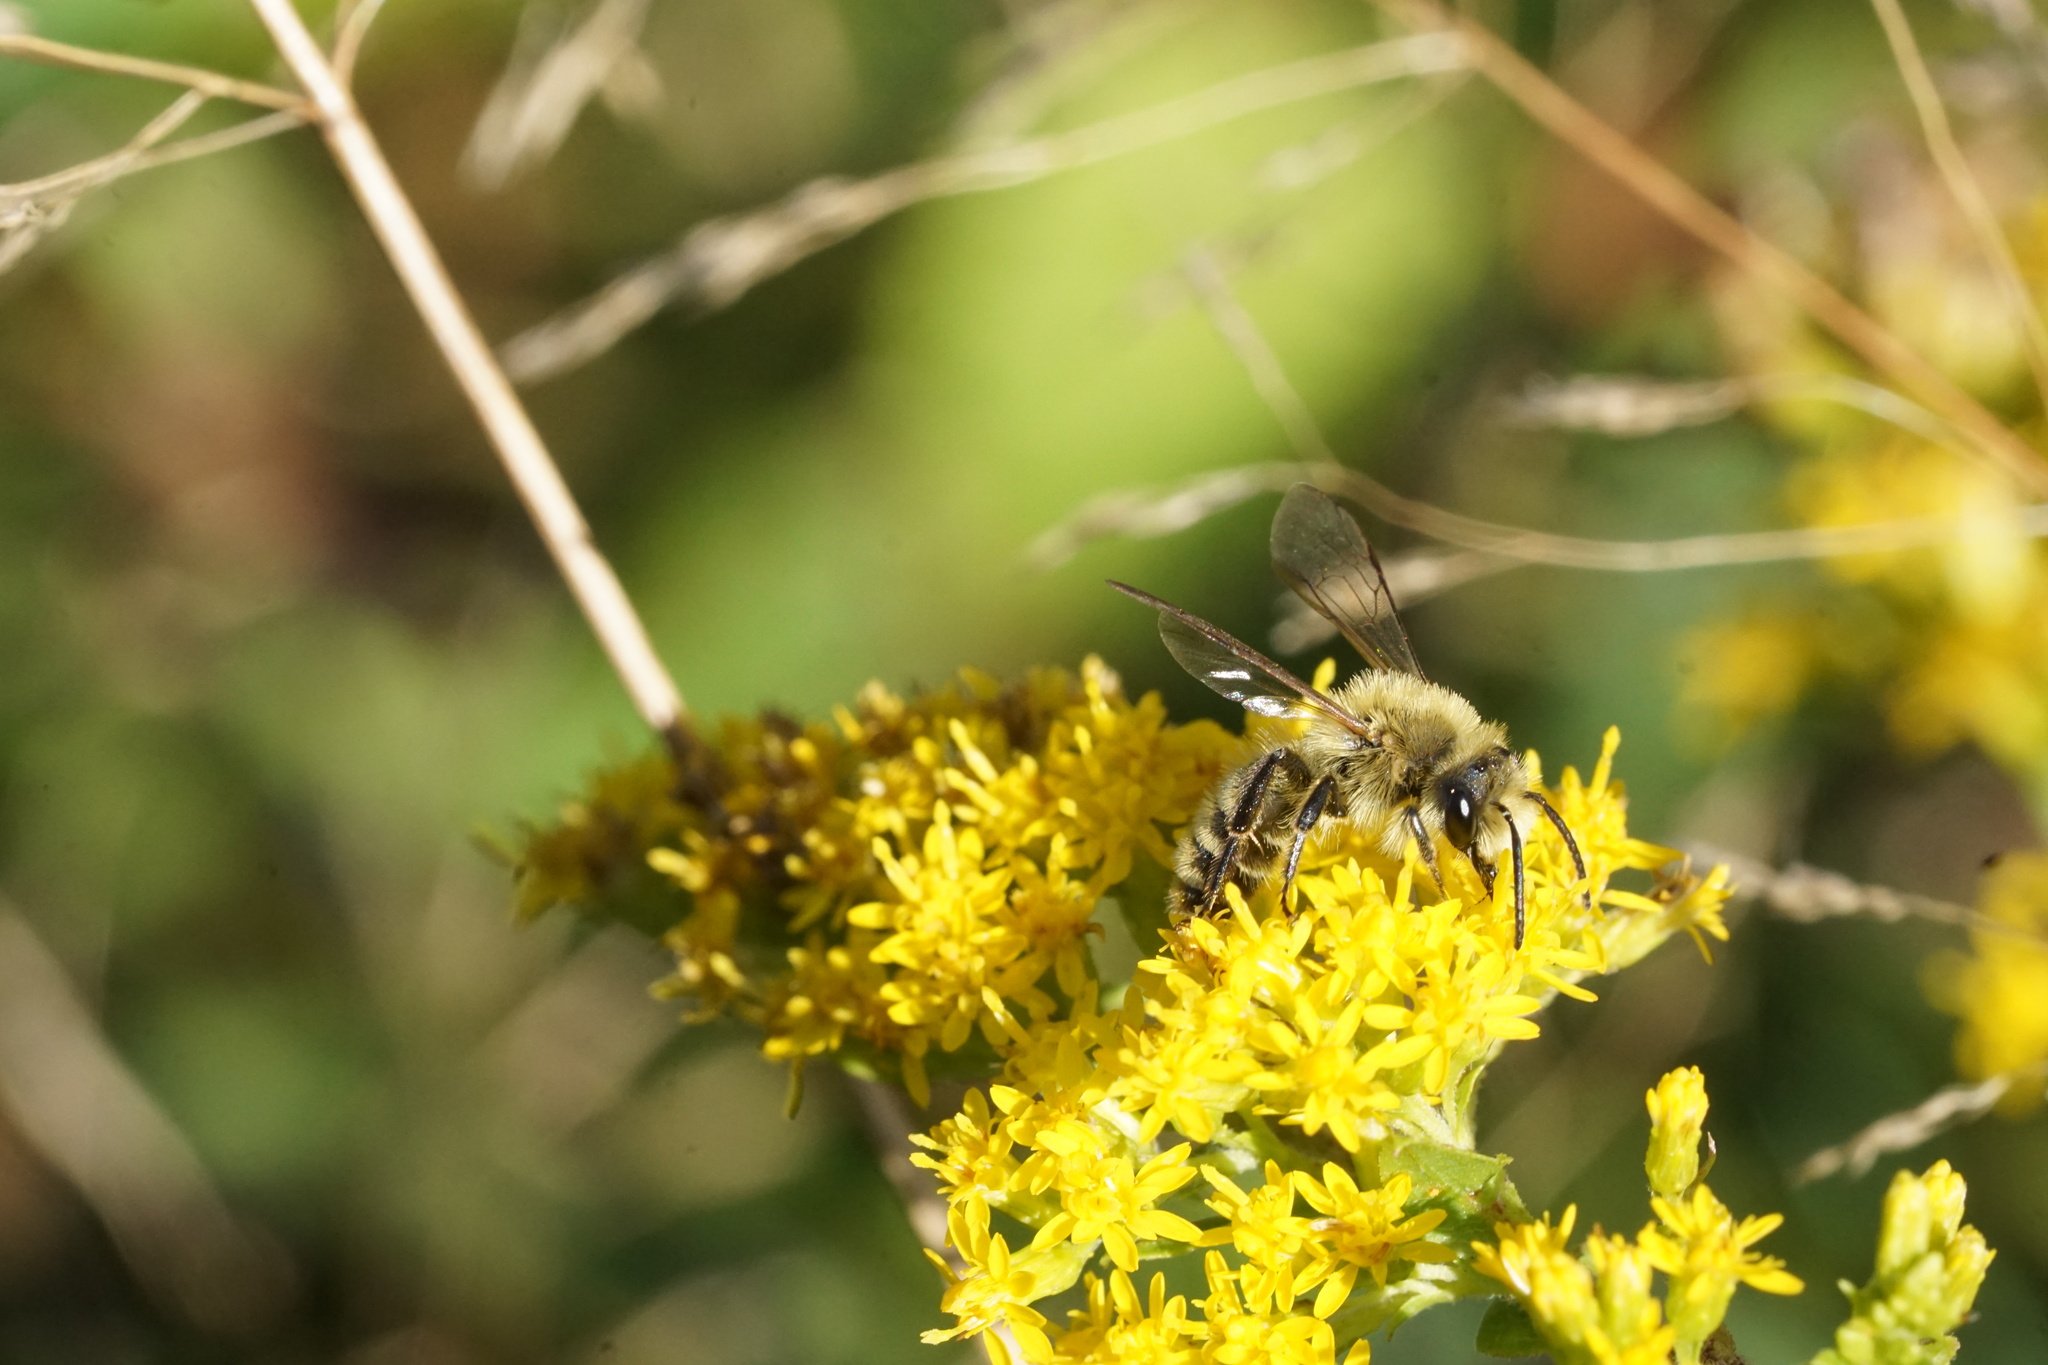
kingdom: Animalia
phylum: Arthropoda
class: Insecta
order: Hymenoptera
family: Andrenidae
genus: Andrena
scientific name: Andrena hirticincta
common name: Hairy-banded mining bee
